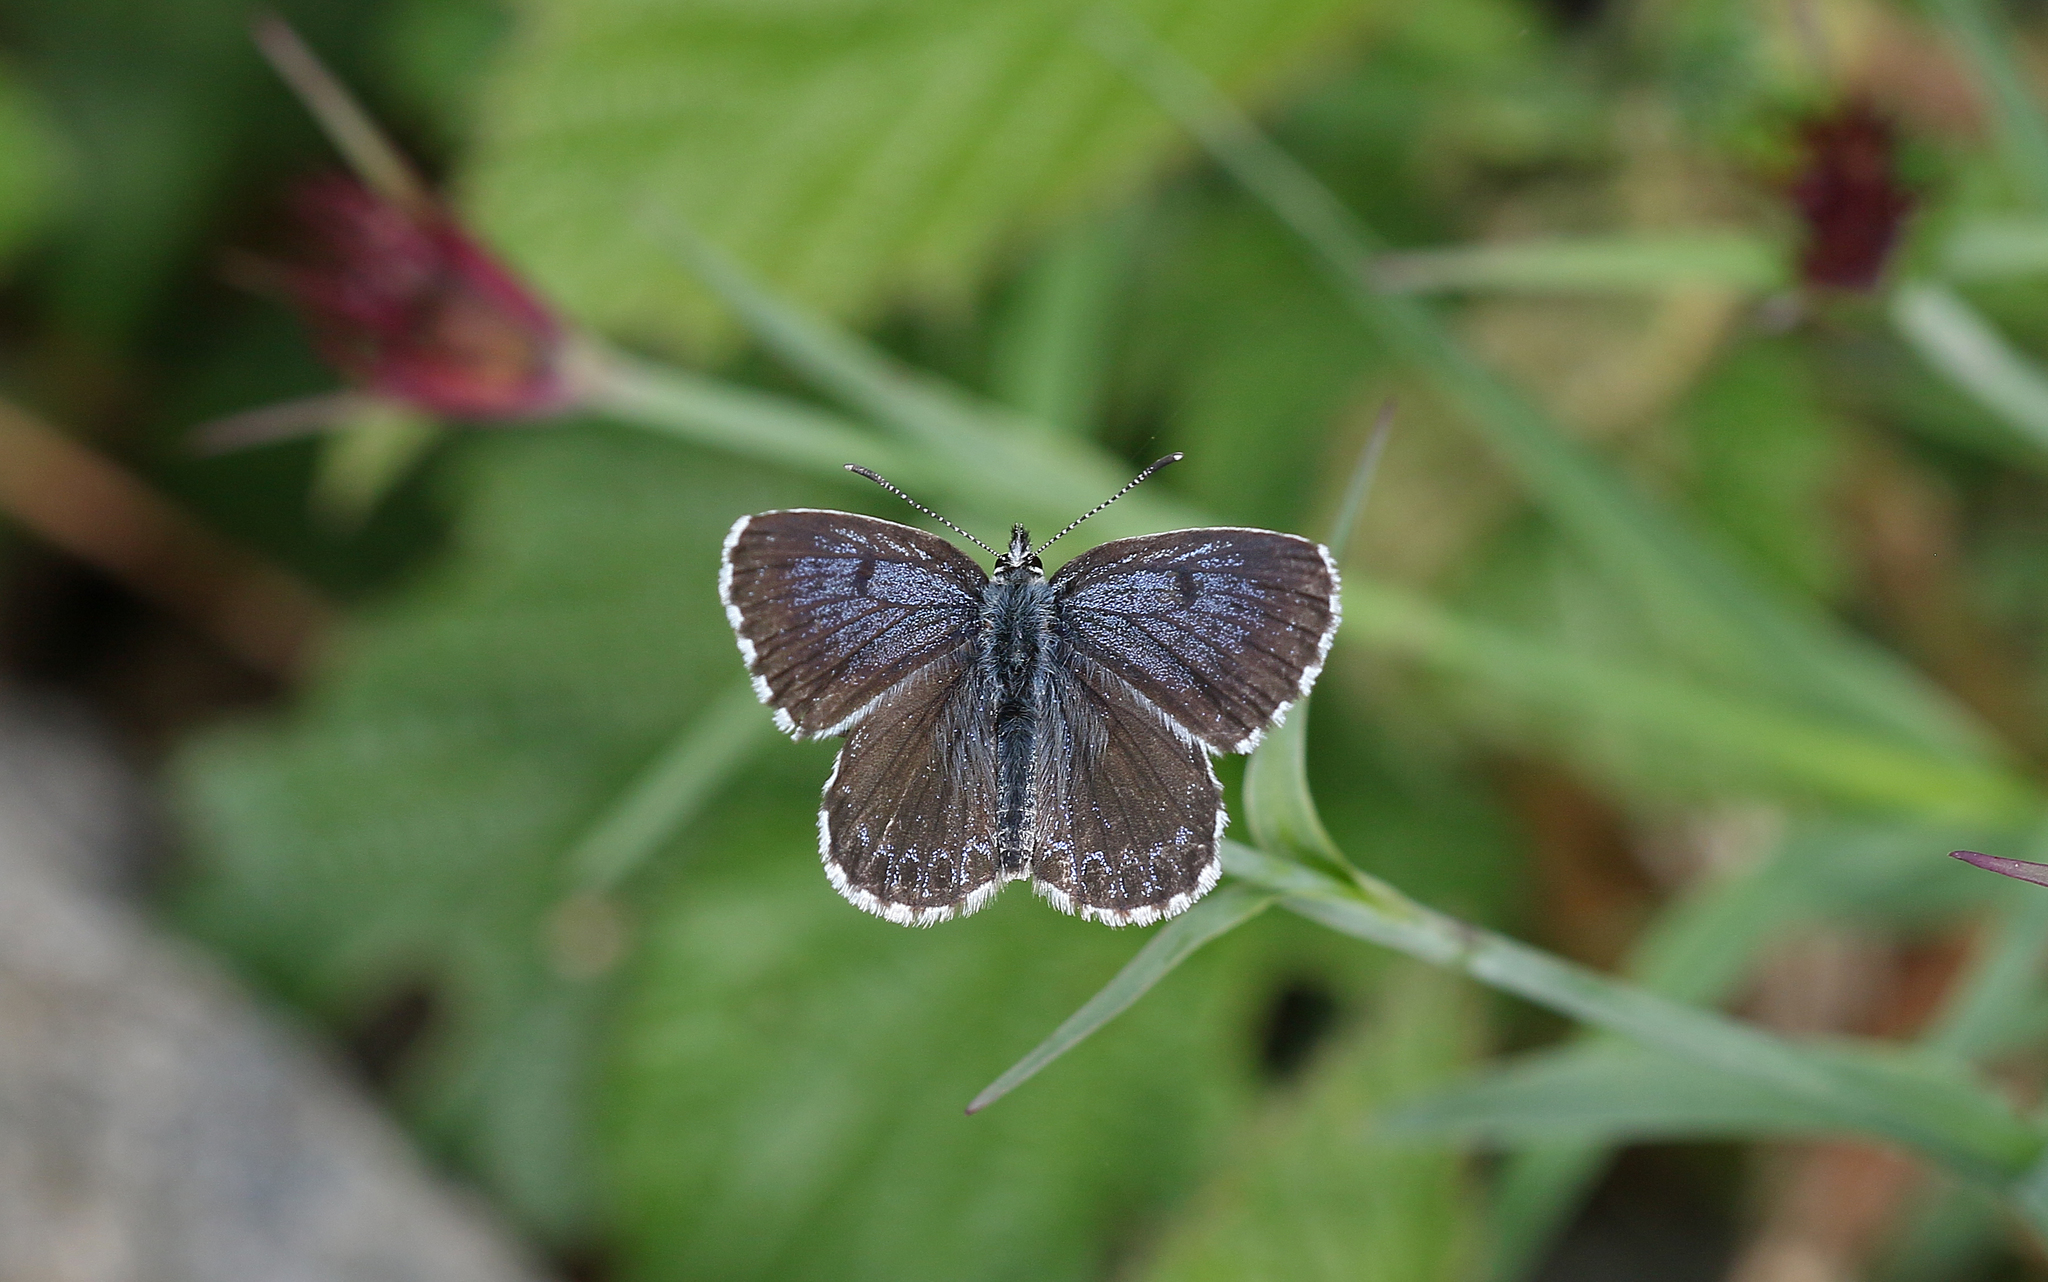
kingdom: Animalia
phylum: Arthropoda
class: Insecta
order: Lepidoptera
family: Lycaenidae
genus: Scolitantides
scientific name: Scolitantides orion
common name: Chequered blue
